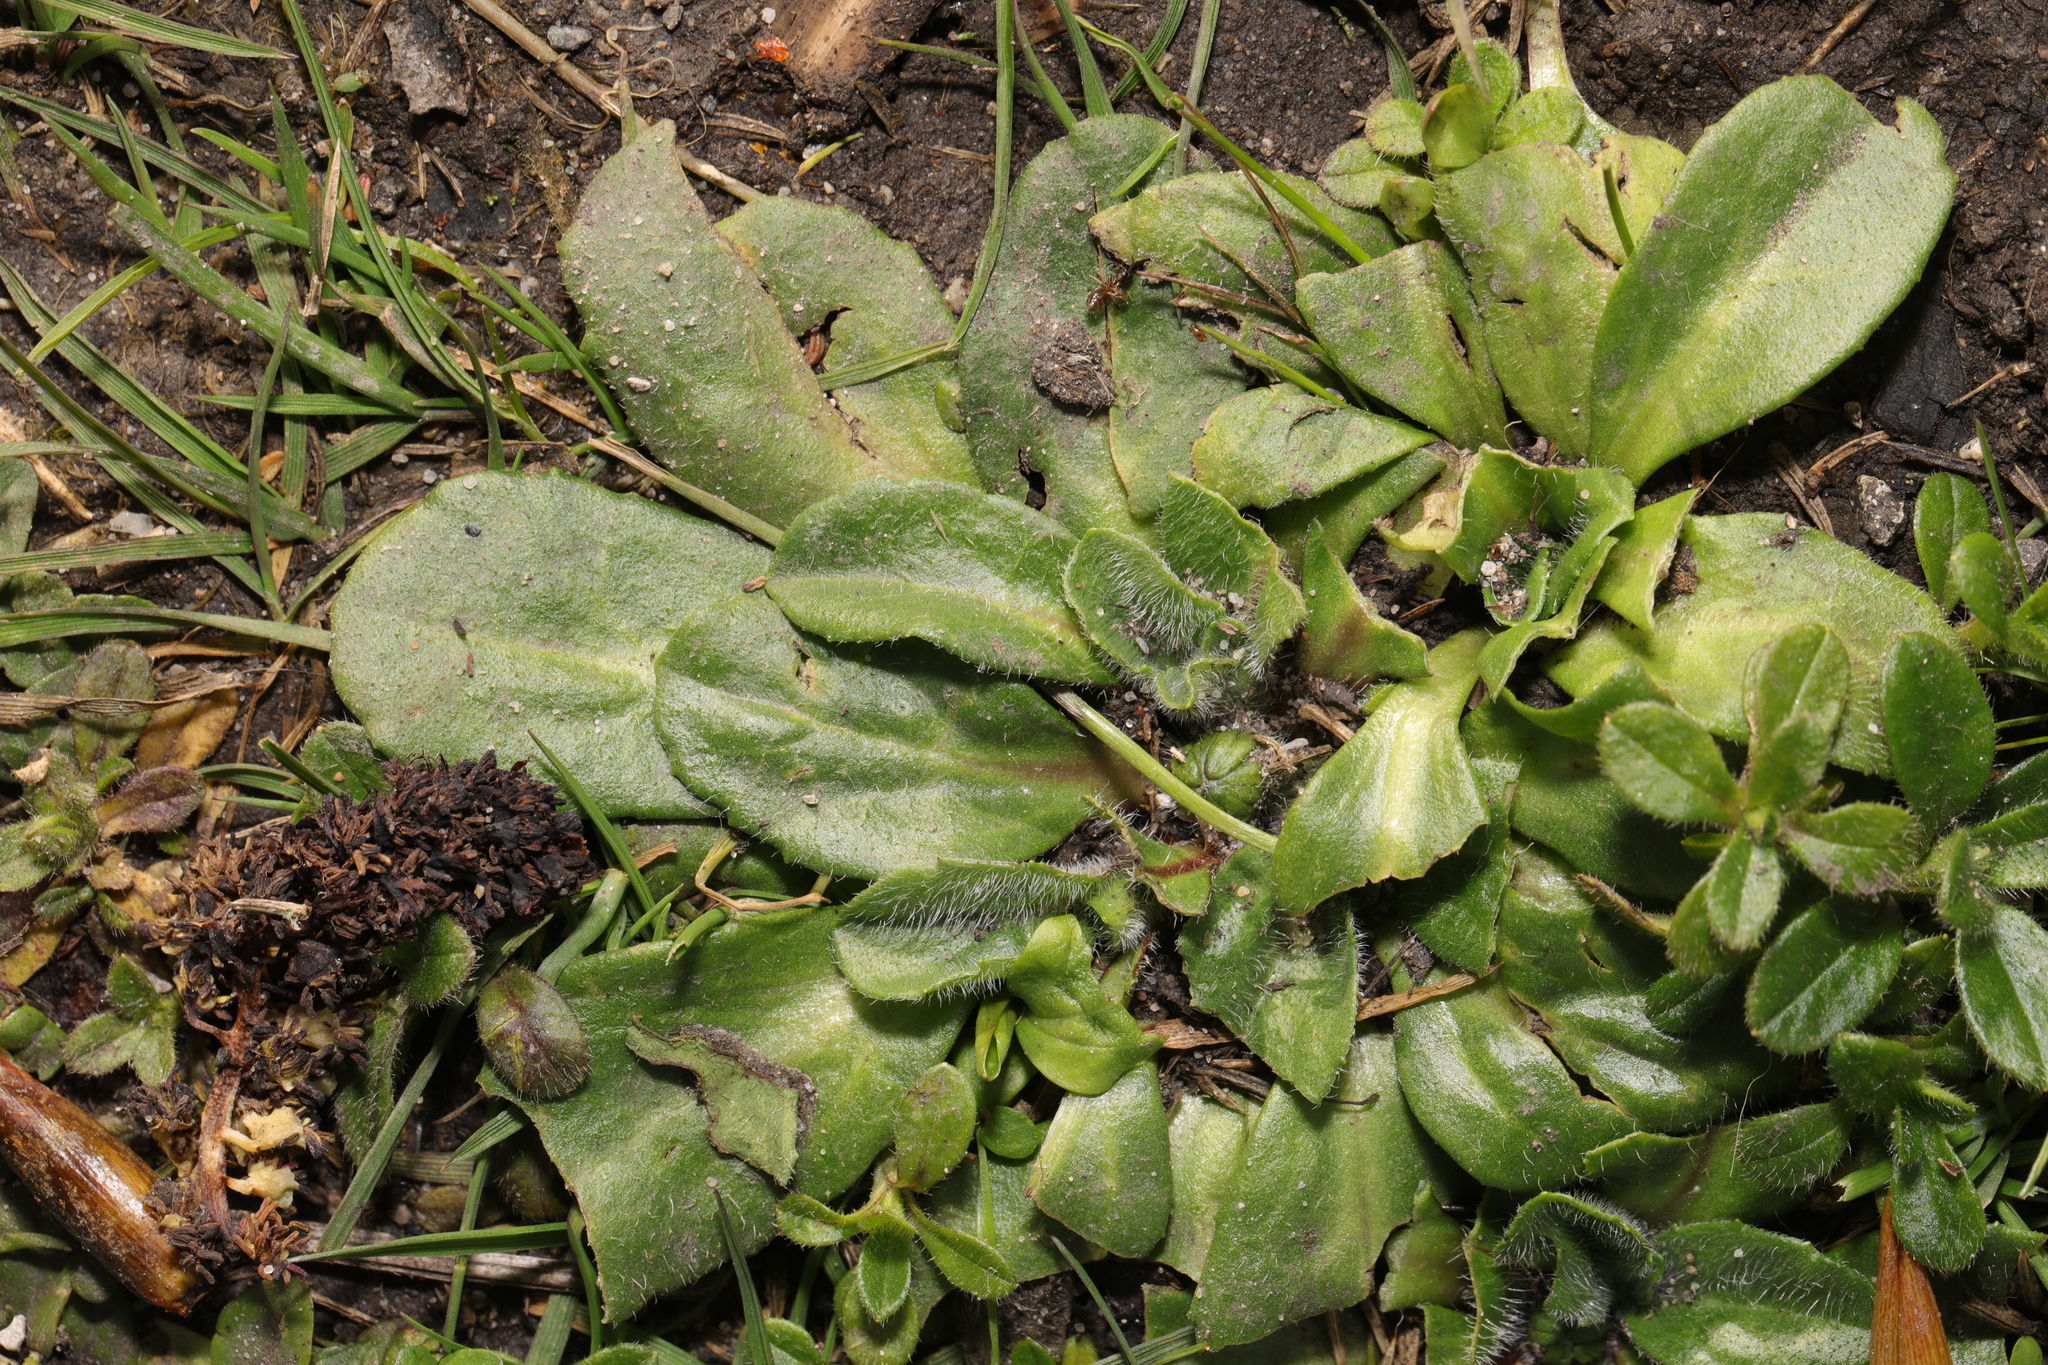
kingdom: Plantae
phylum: Tracheophyta
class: Magnoliopsida
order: Asterales
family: Asteraceae
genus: Bellis
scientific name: Bellis perennis
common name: Lawndaisy
